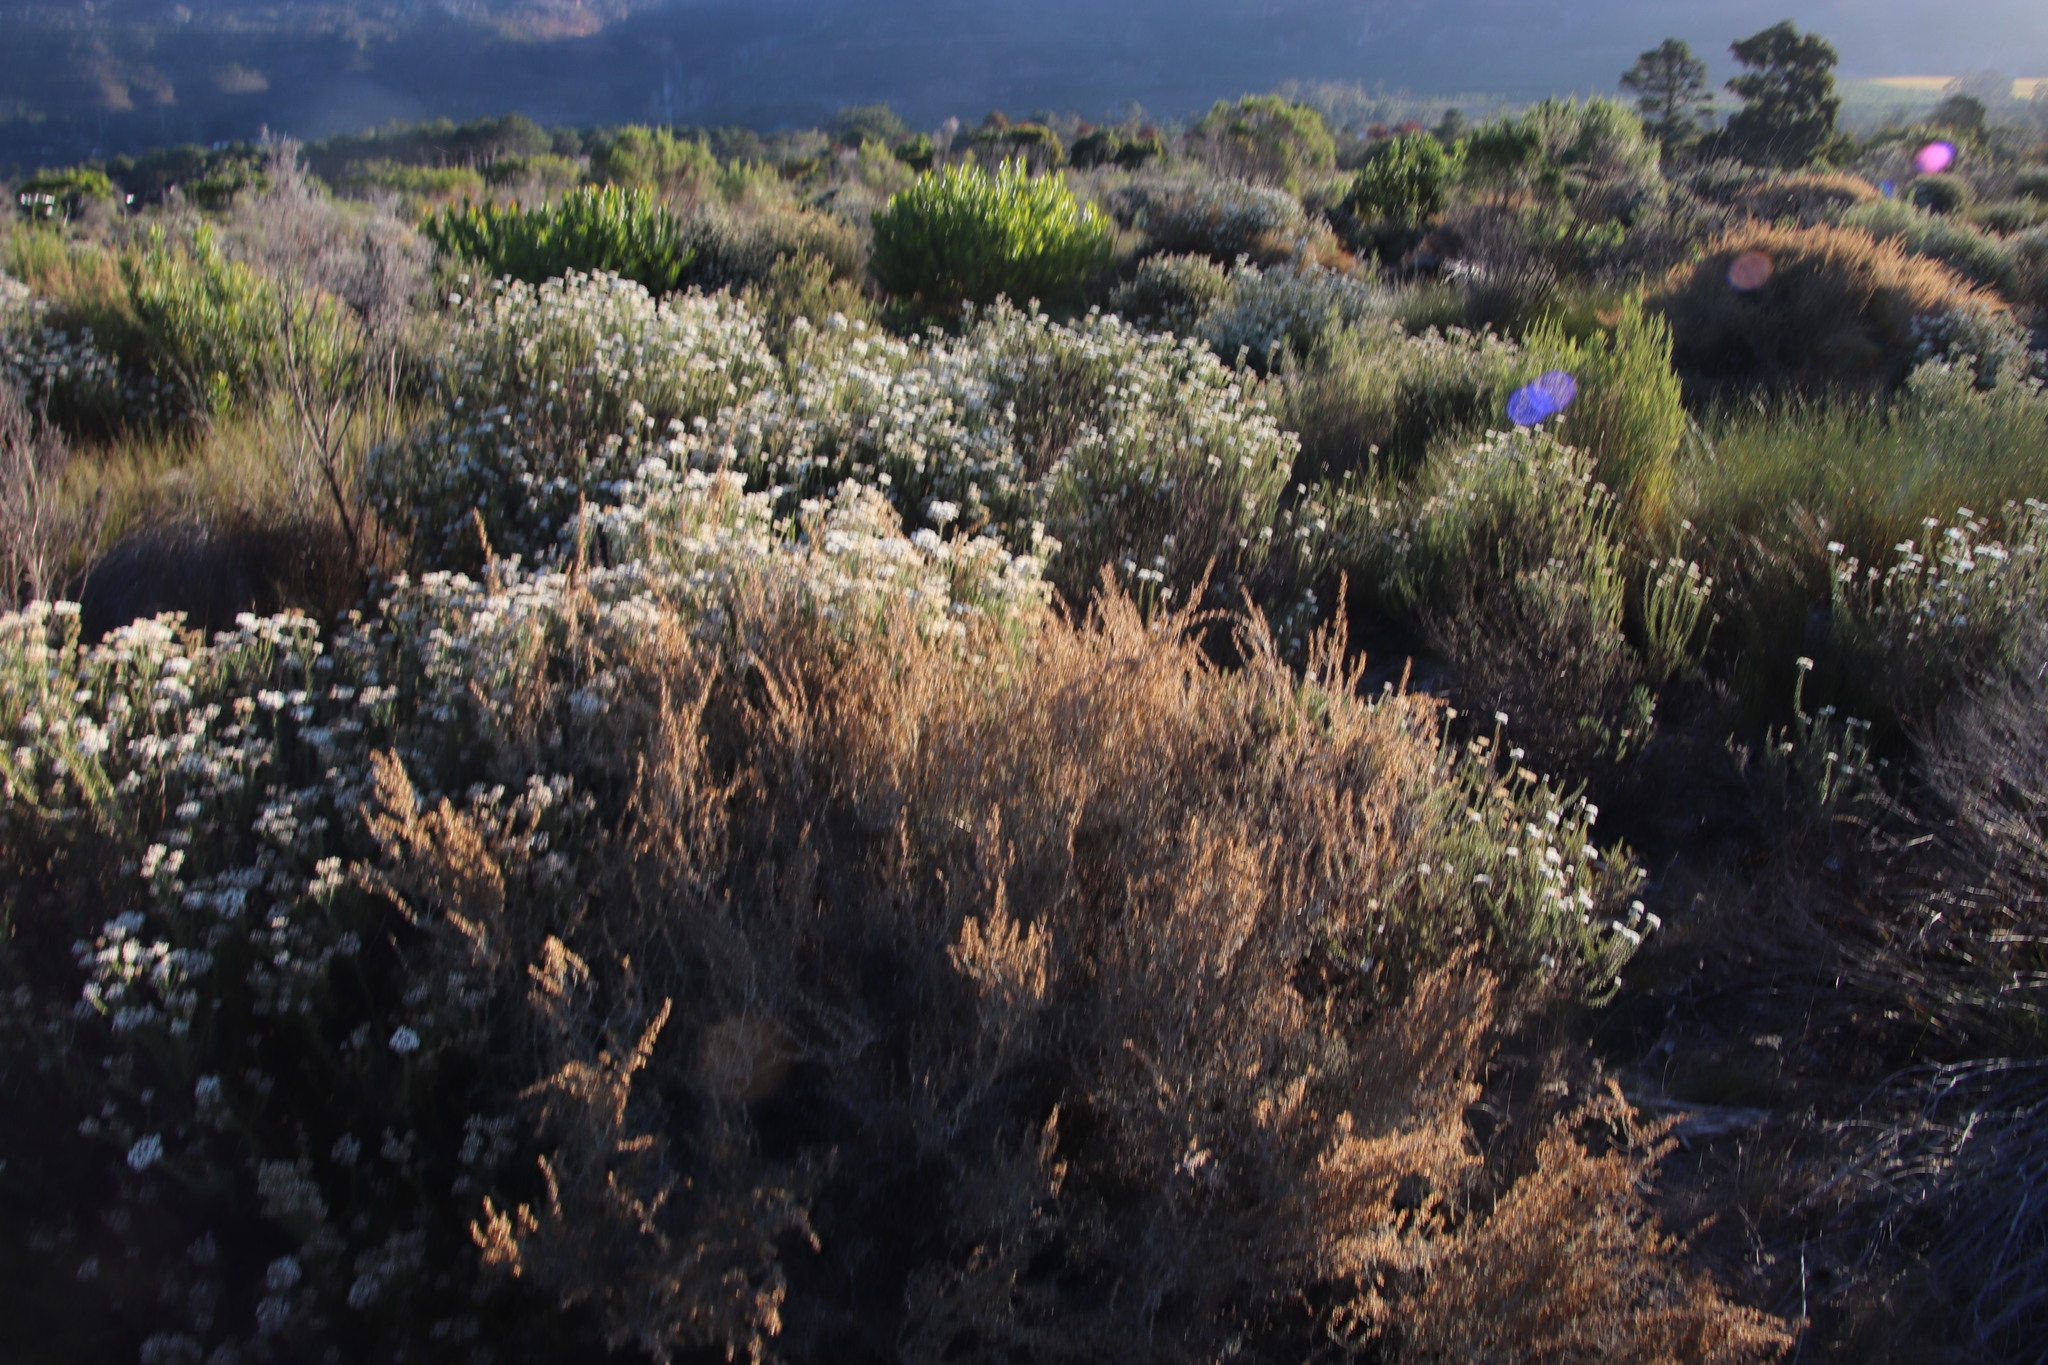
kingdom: Plantae
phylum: Tracheophyta
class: Magnoliopsida
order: Asterales
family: Asteraceae
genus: Seriphium
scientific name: Seriphium plumosum
